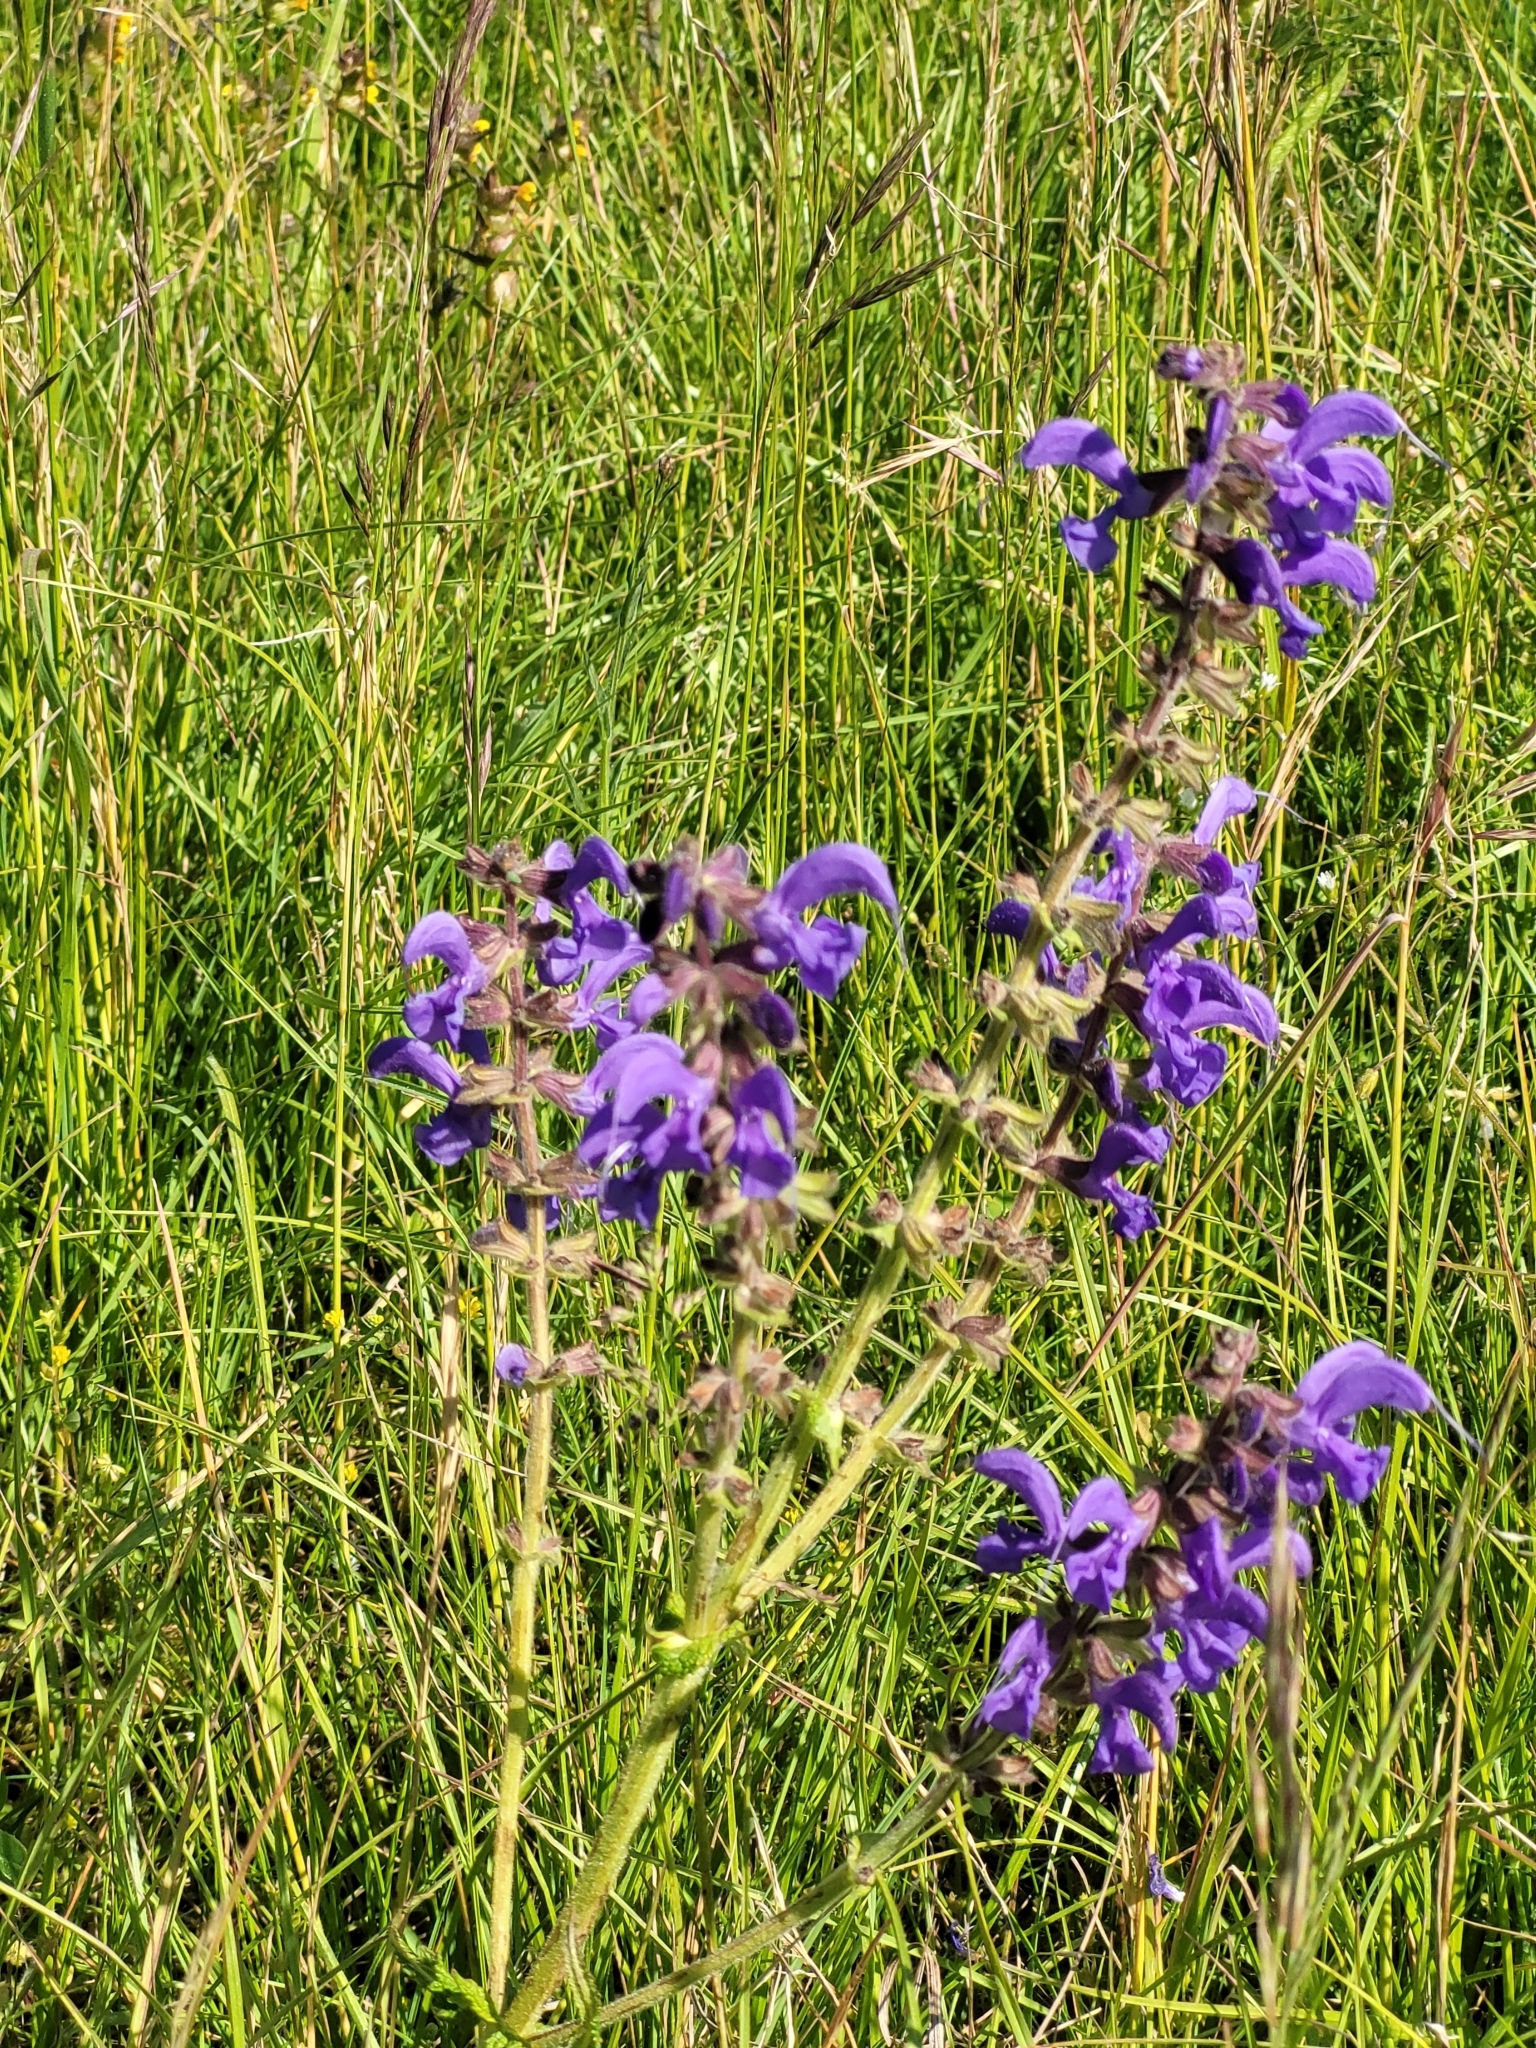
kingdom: Plantae
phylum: Tracheophyta
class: Magnoliopsida
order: Lamiales
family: Lamiaceae
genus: Salvia
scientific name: Salvia pratensis
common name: Meadow sage
